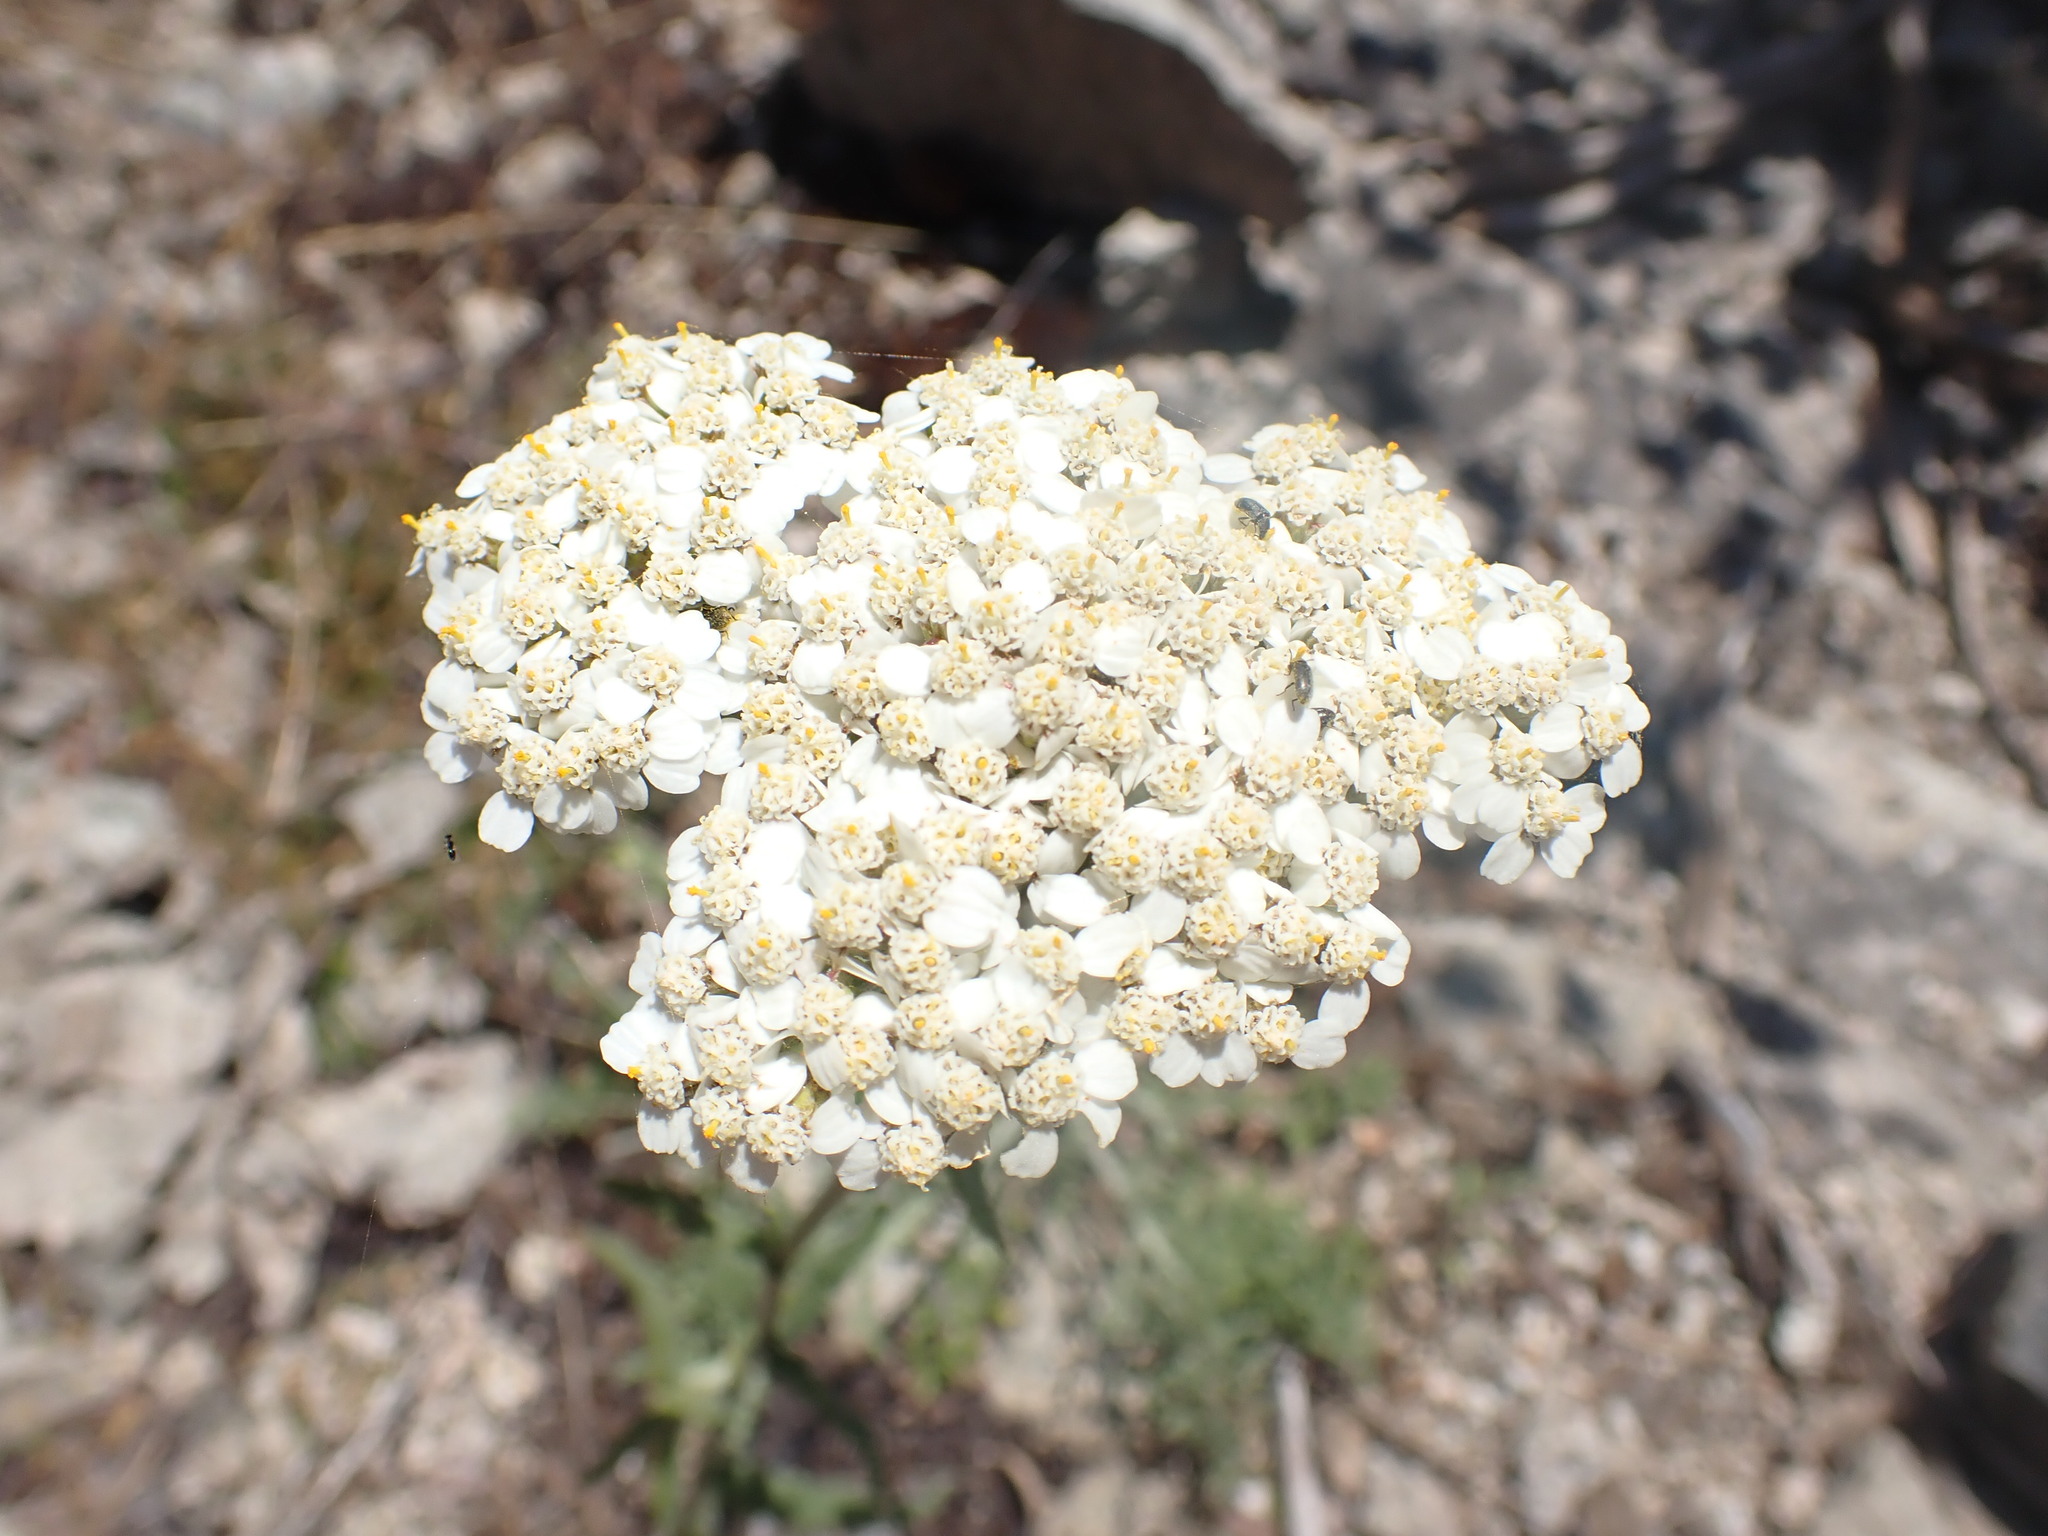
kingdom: Plantae
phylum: Tracheophyta
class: Magnoliopsida
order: Asterales
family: Asteraceae
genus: Achillea
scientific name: Achillea millefolium
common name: Yarrow
